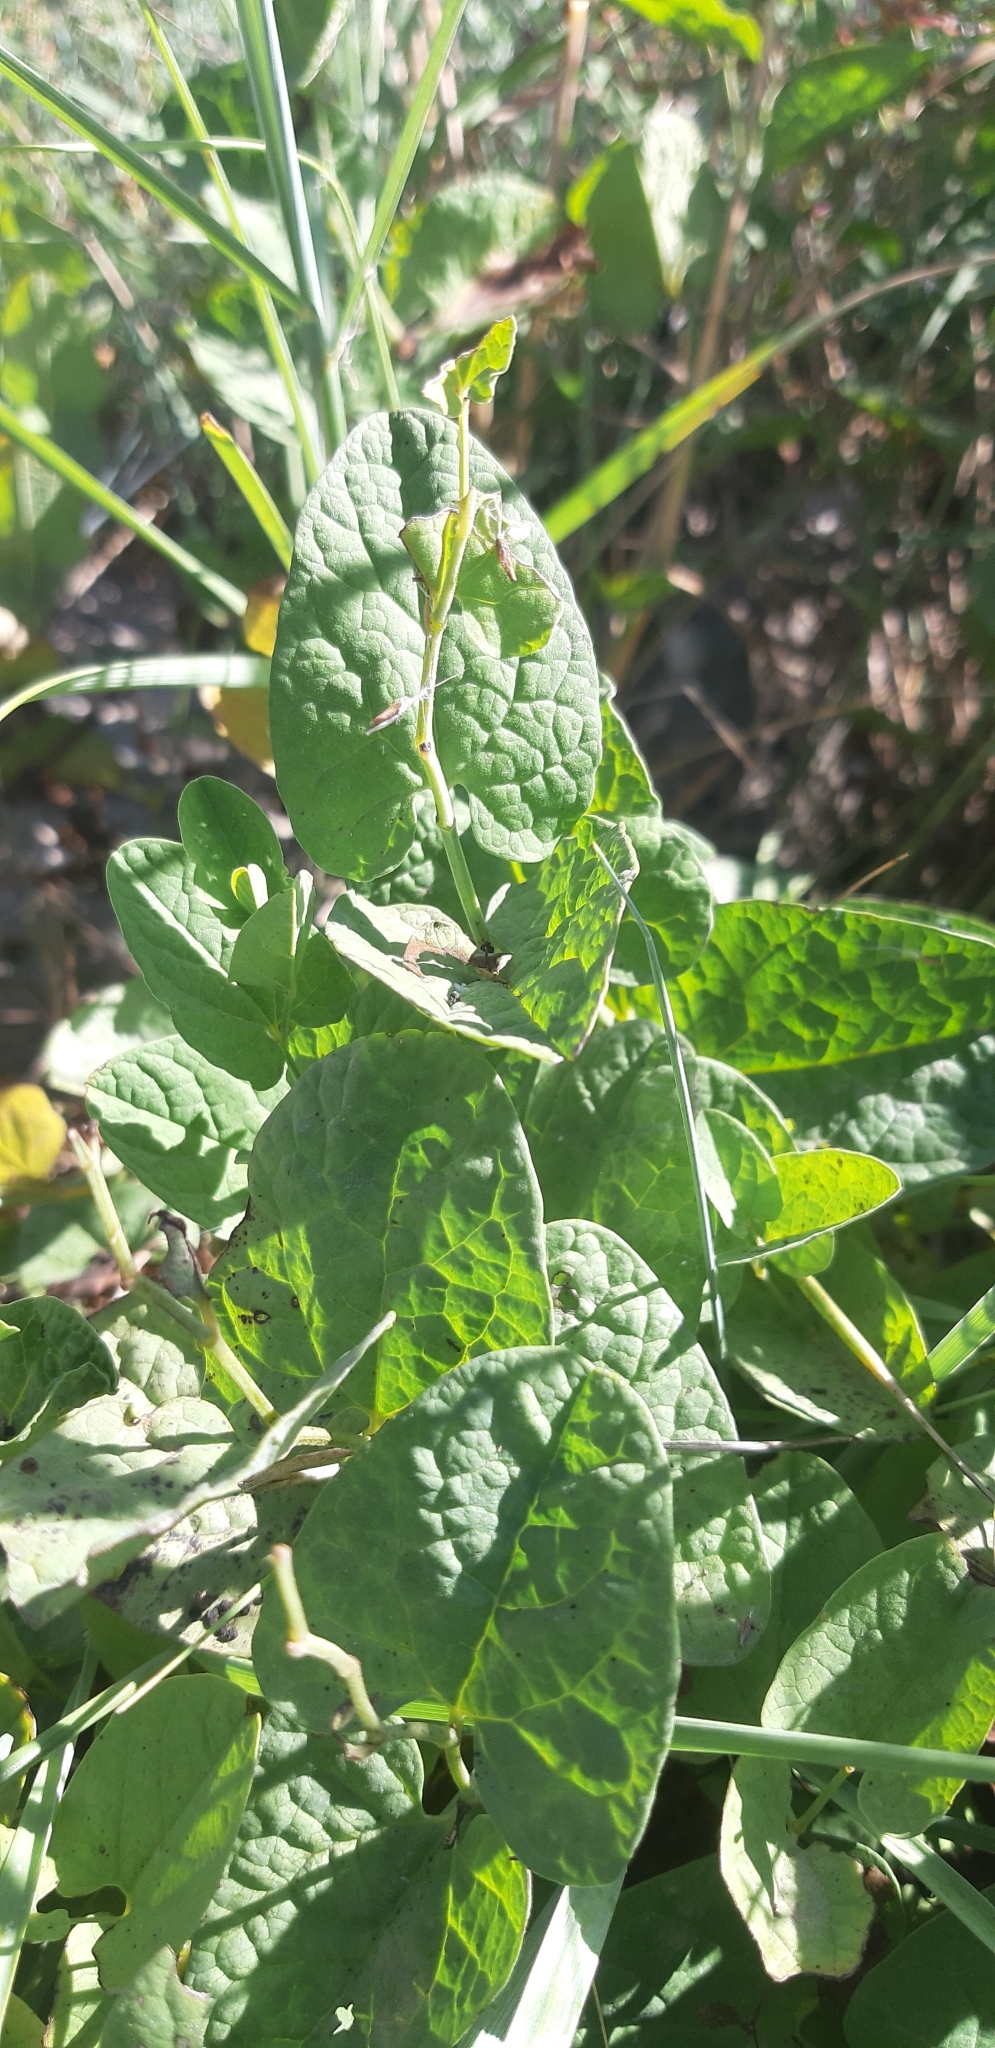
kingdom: Plantae
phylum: Tracheophyta
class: Magnoliopsida
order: Piperales
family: Aristolochiaceae
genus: Aristolochia
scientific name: Aristolochia clusii
